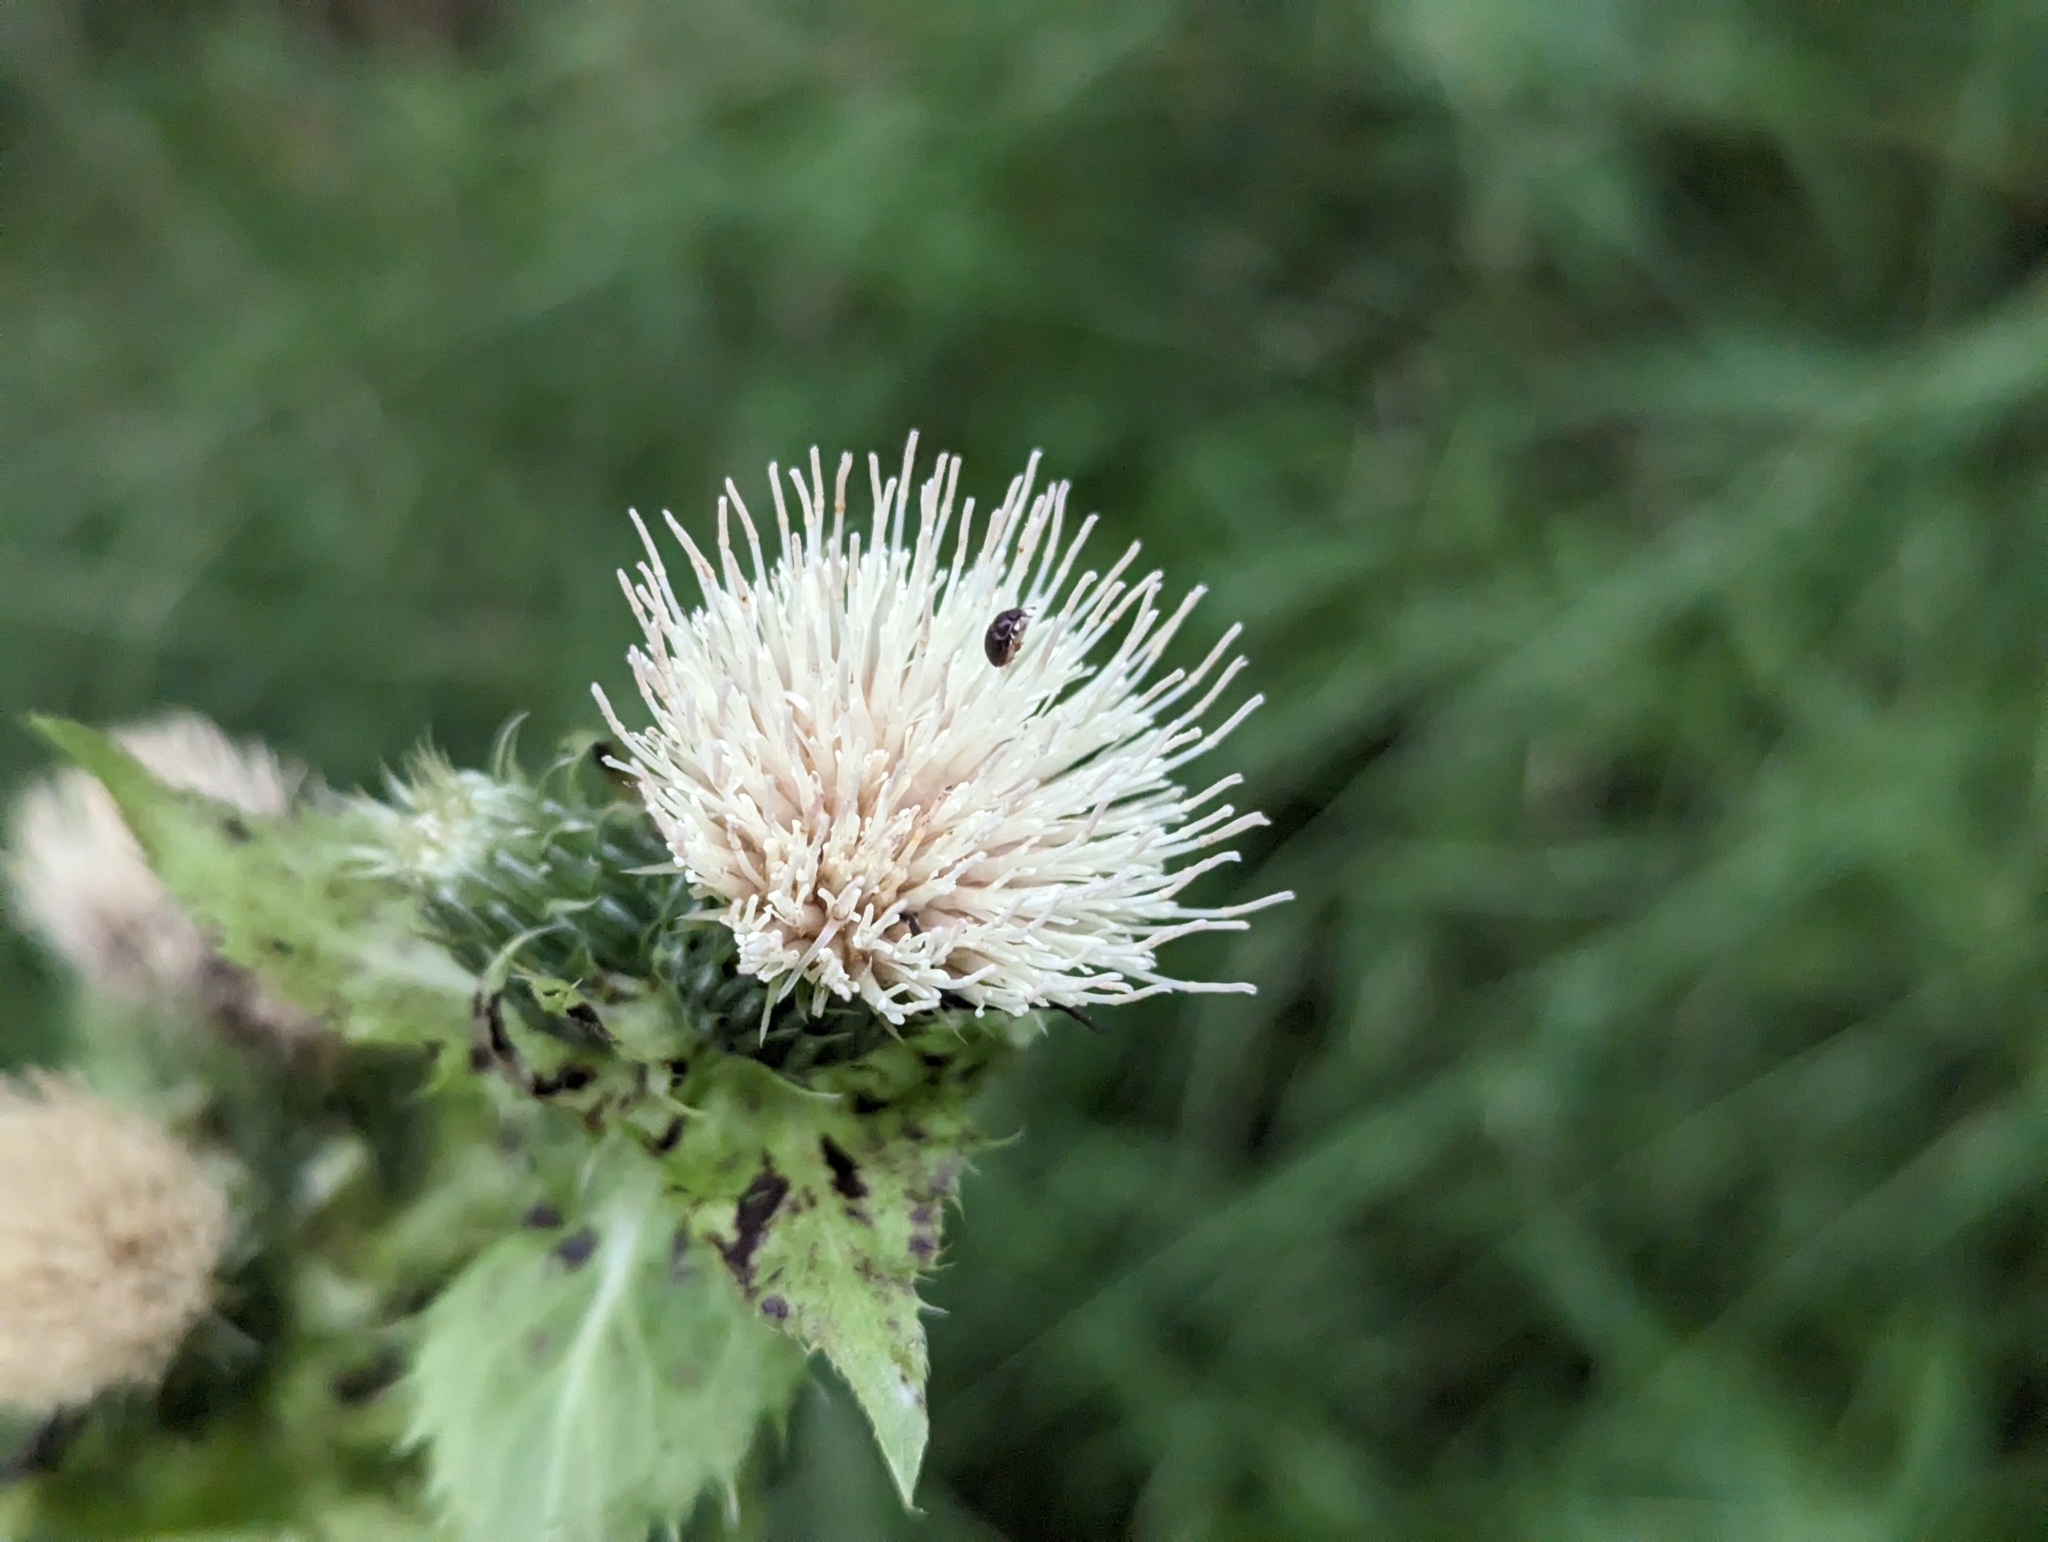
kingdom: Plantae
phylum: Tracheophyta
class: Magnoliopsida
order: Asterales
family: Asteraceae
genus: Cirsium
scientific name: Cirsium oleraceum
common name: Cabbage thistle
